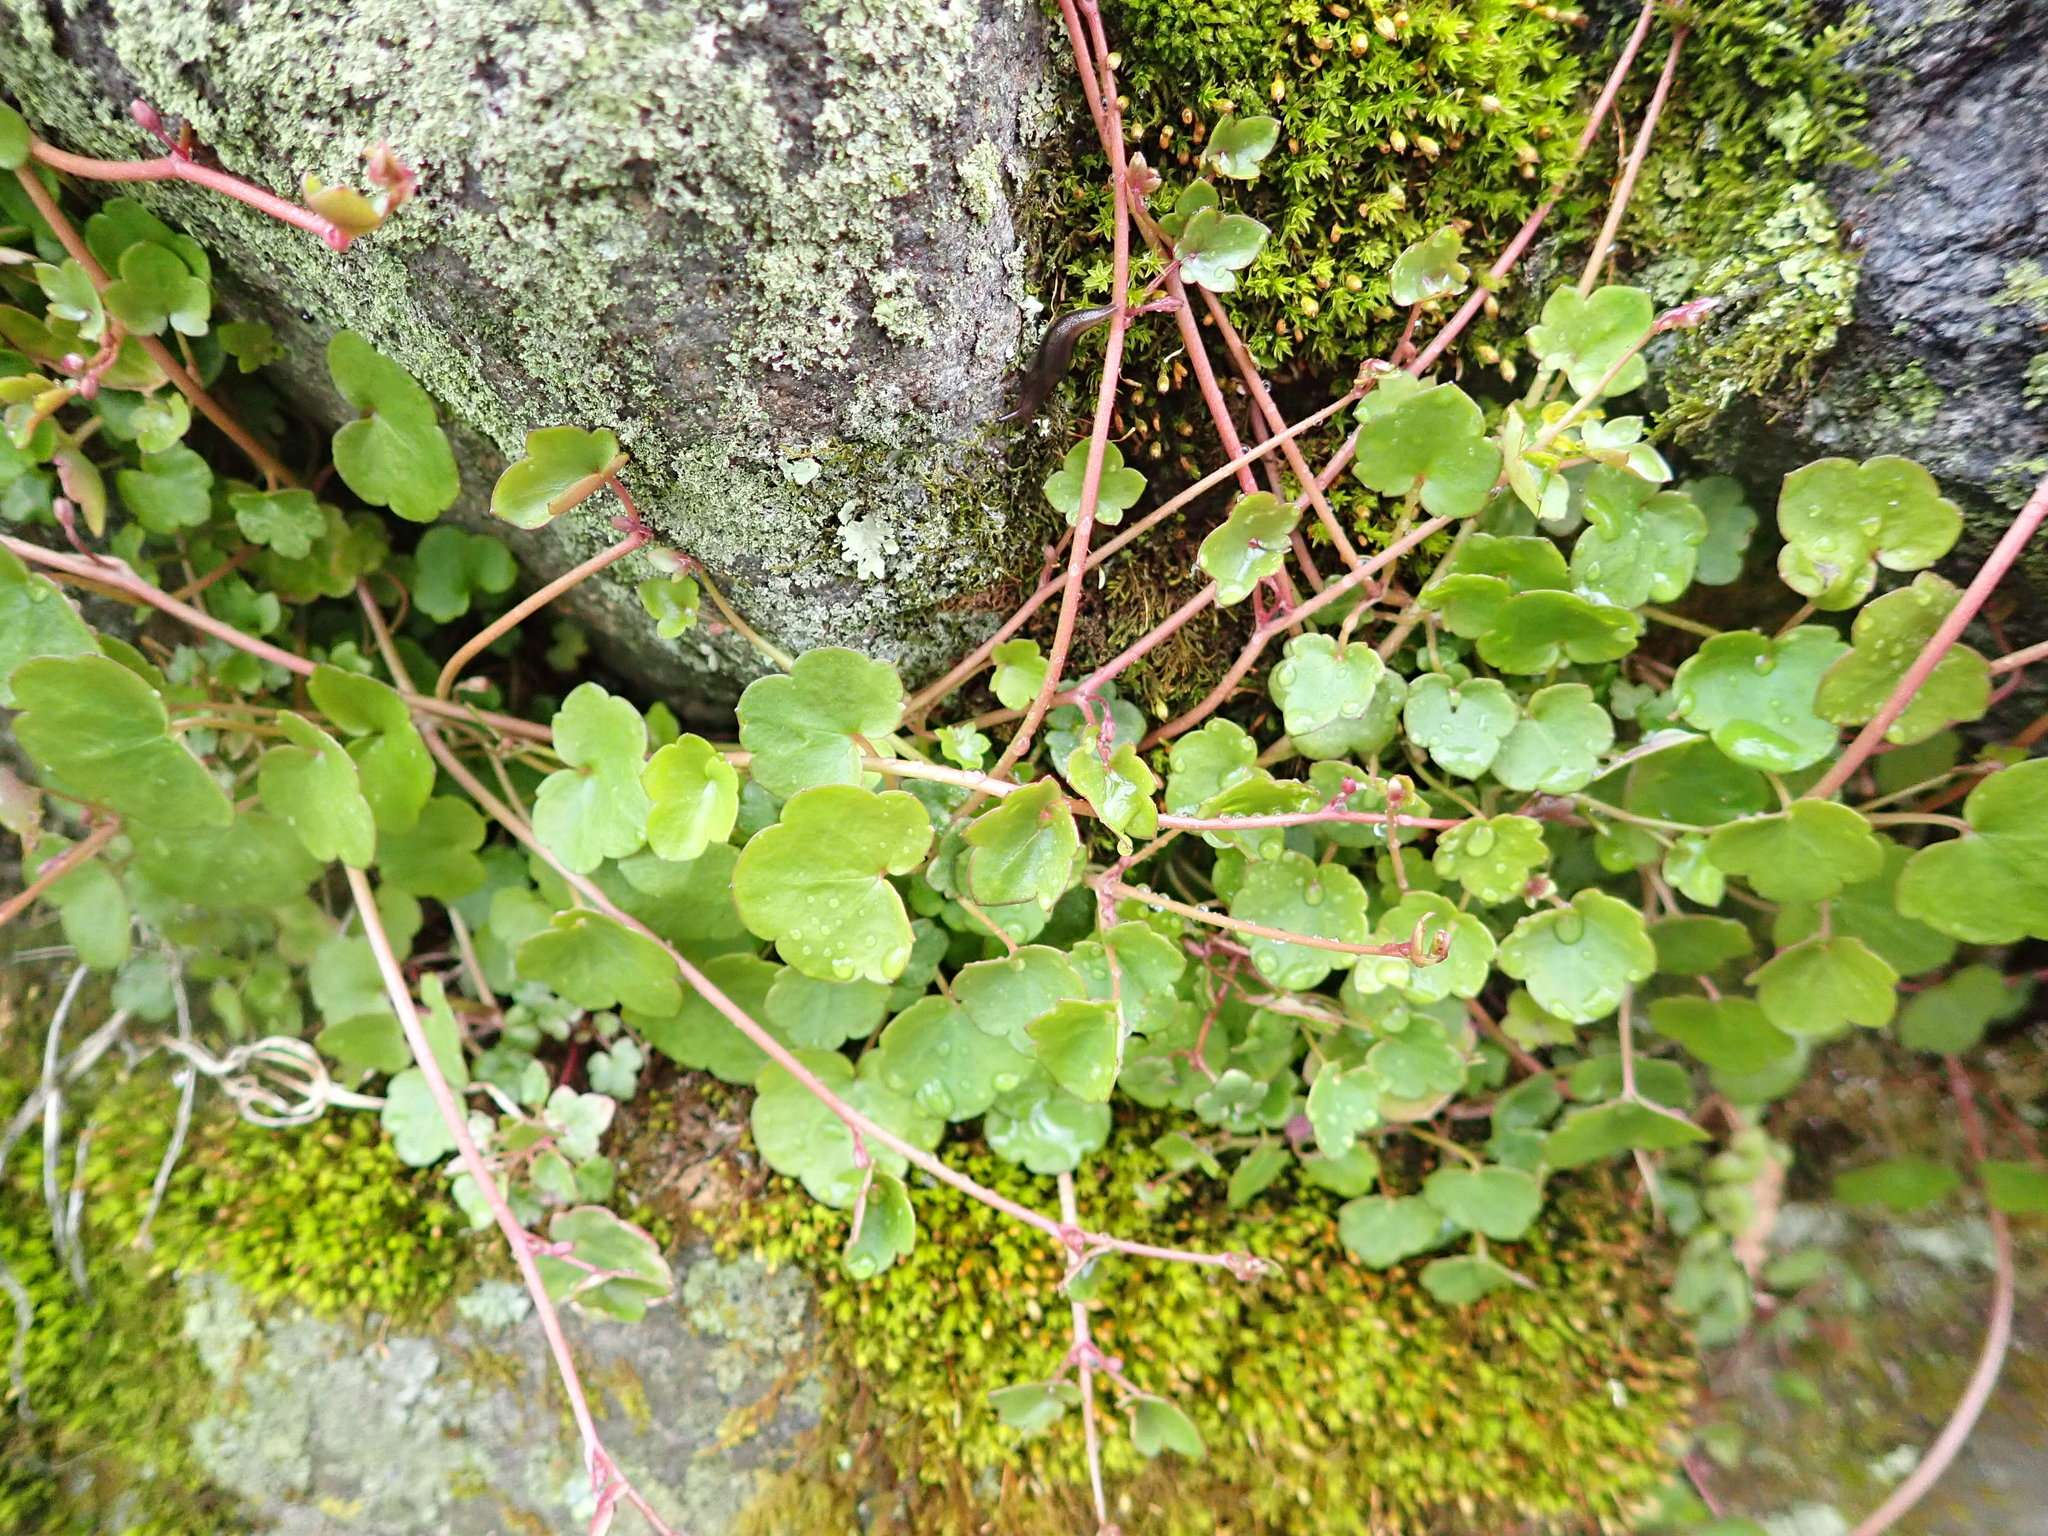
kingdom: Plantae
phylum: Tracheophyta
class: Magnoliopsida
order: Lamiales
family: Plantaginaceae
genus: Cymbalaria
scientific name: Cymbalaria muralis
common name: Ivy-leaved toadflax
